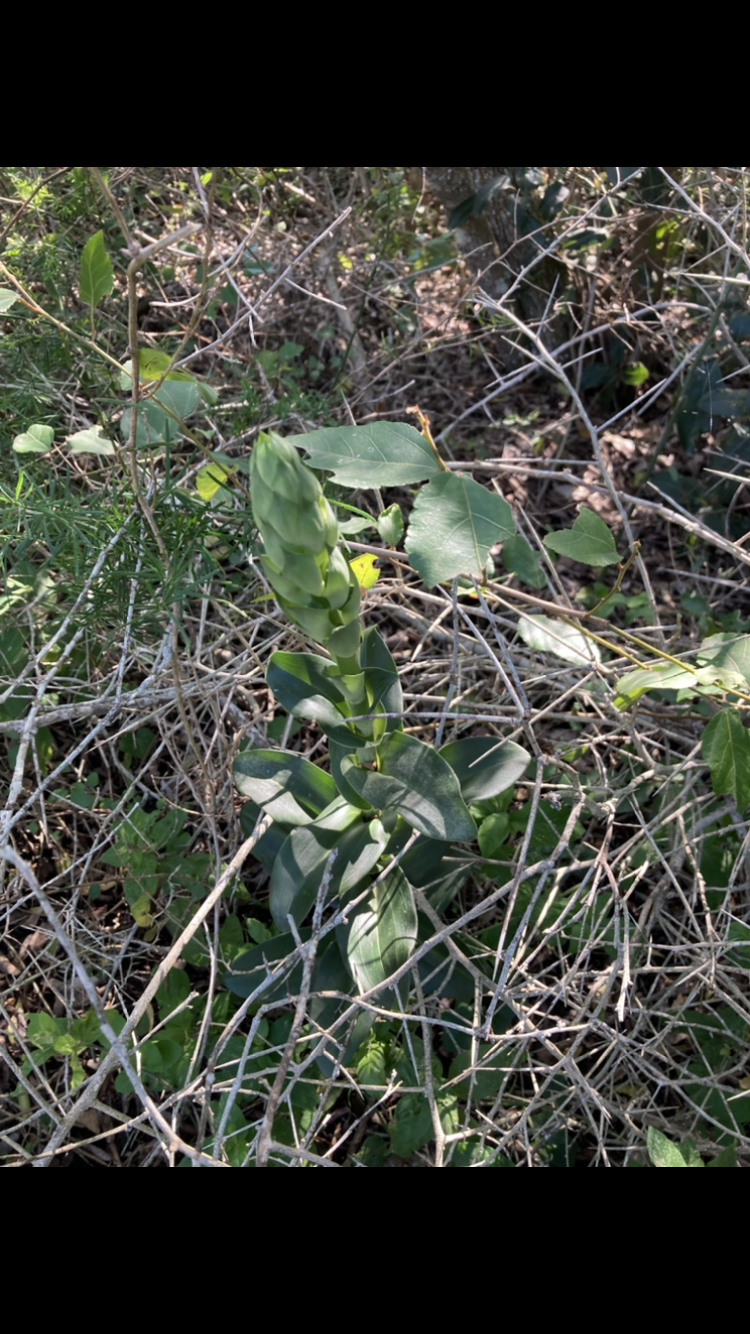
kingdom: Plantae
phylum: Tracheophyta
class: Liliopsida
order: Asparagales
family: Orchidaceae
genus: Bonatea
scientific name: Bonatea speciosa
